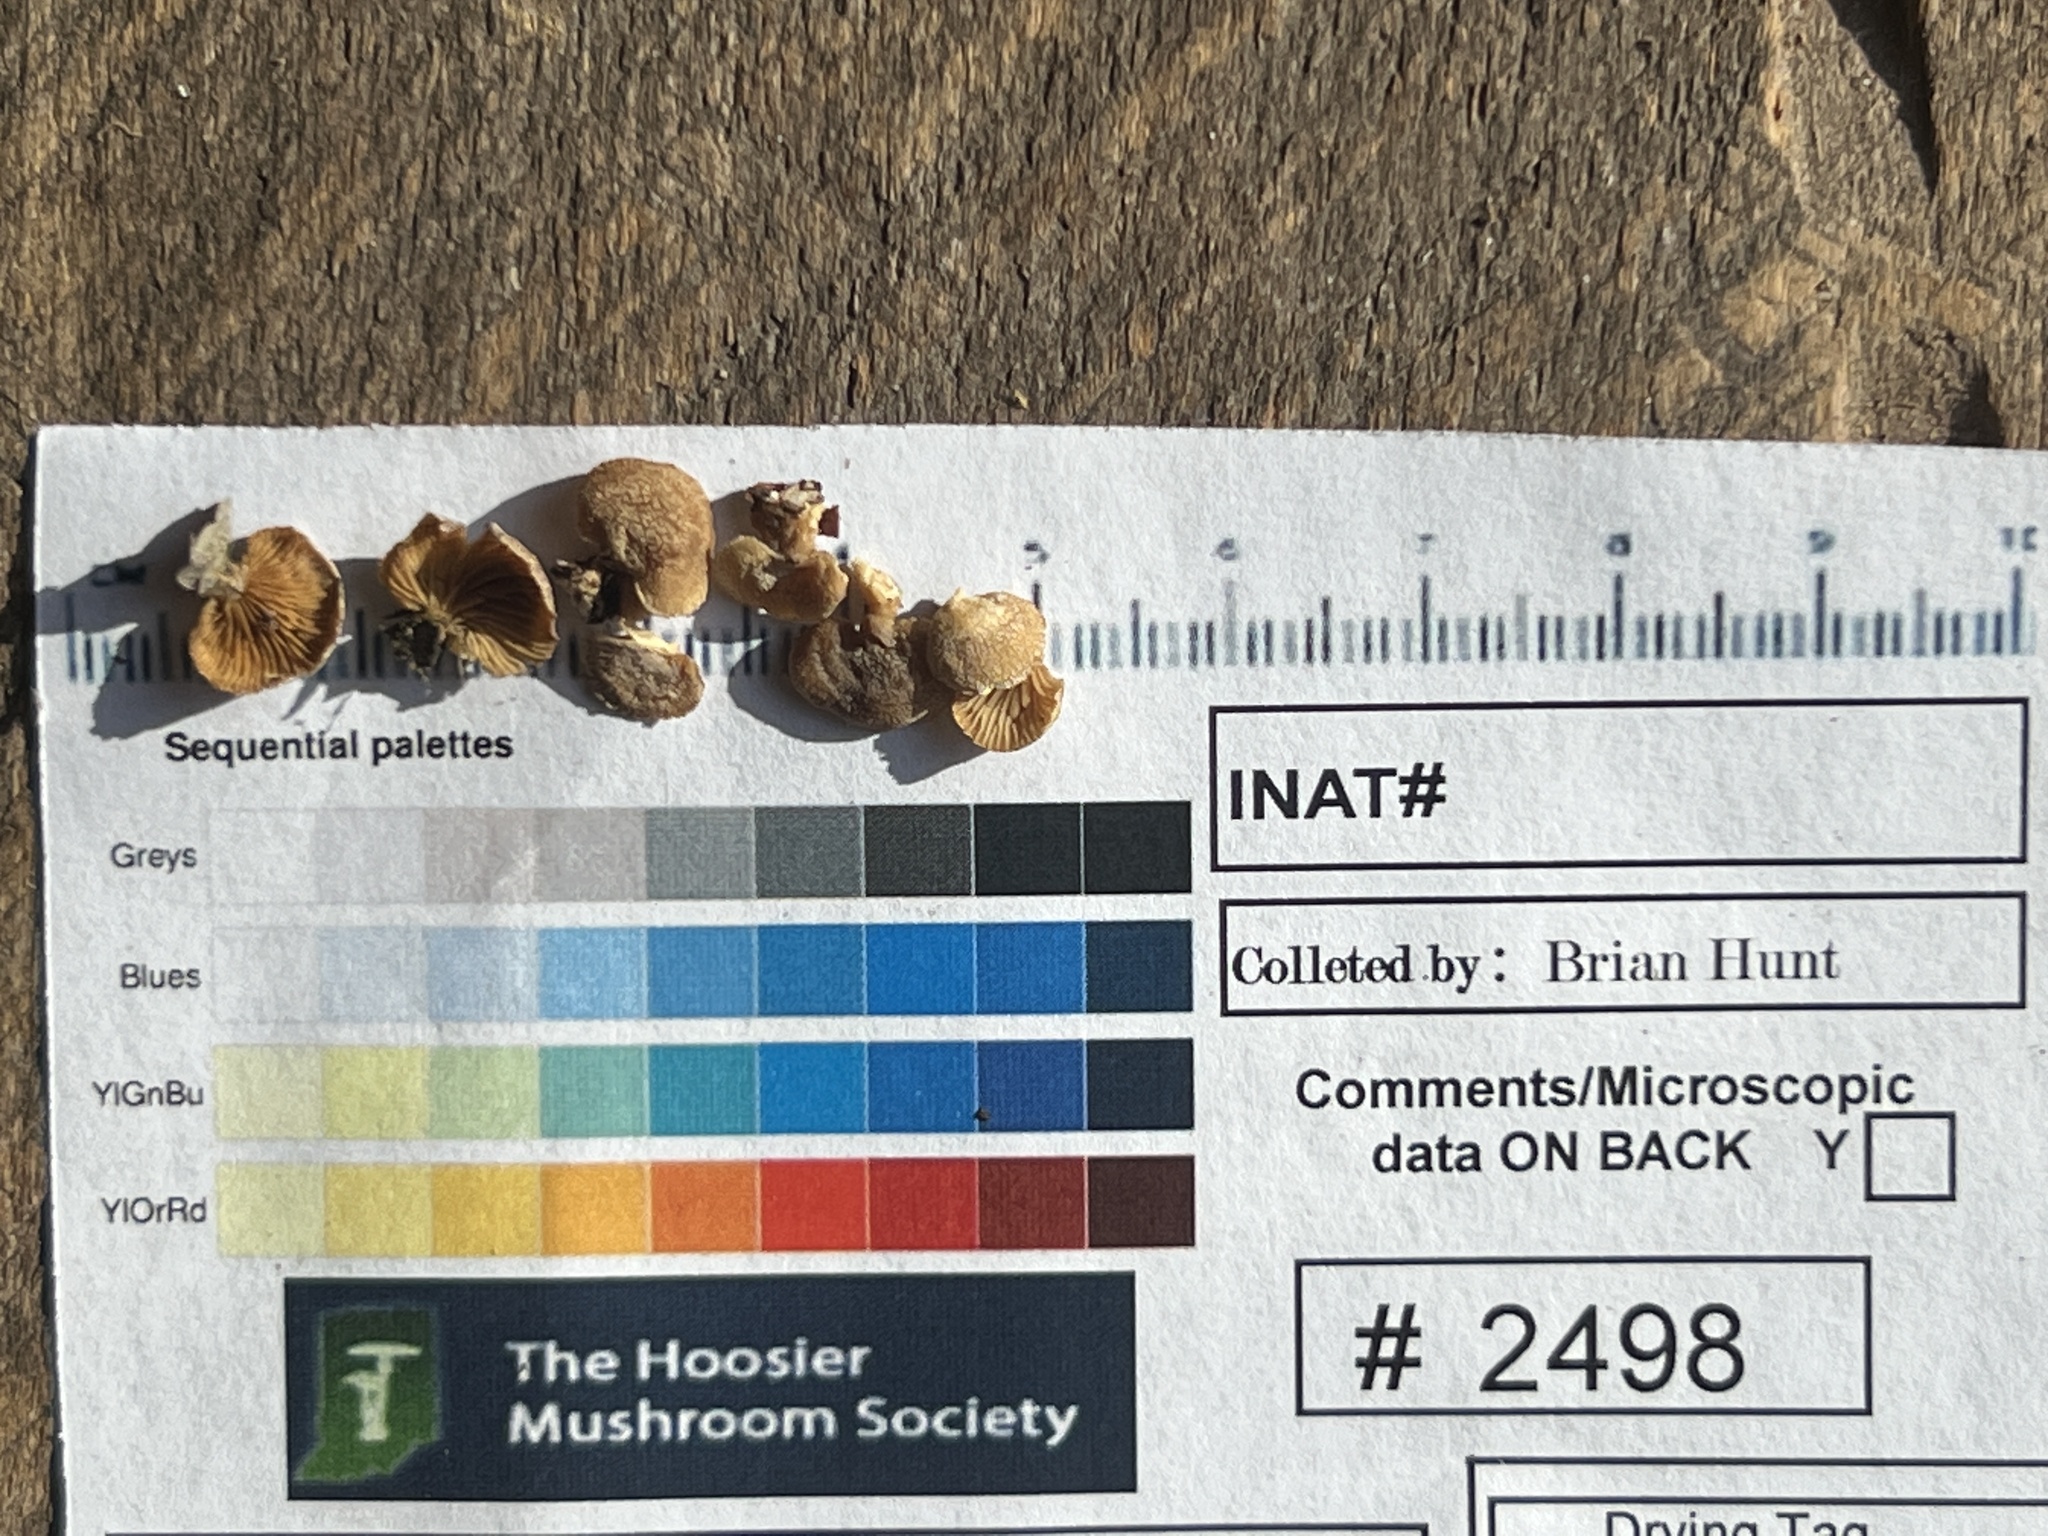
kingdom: Fungi
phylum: Basidiomycota
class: Agaricomycetes
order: Agaricales
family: Mycenaceae
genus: Panellus
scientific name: Panellus stipticus
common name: Bitter oysterling
